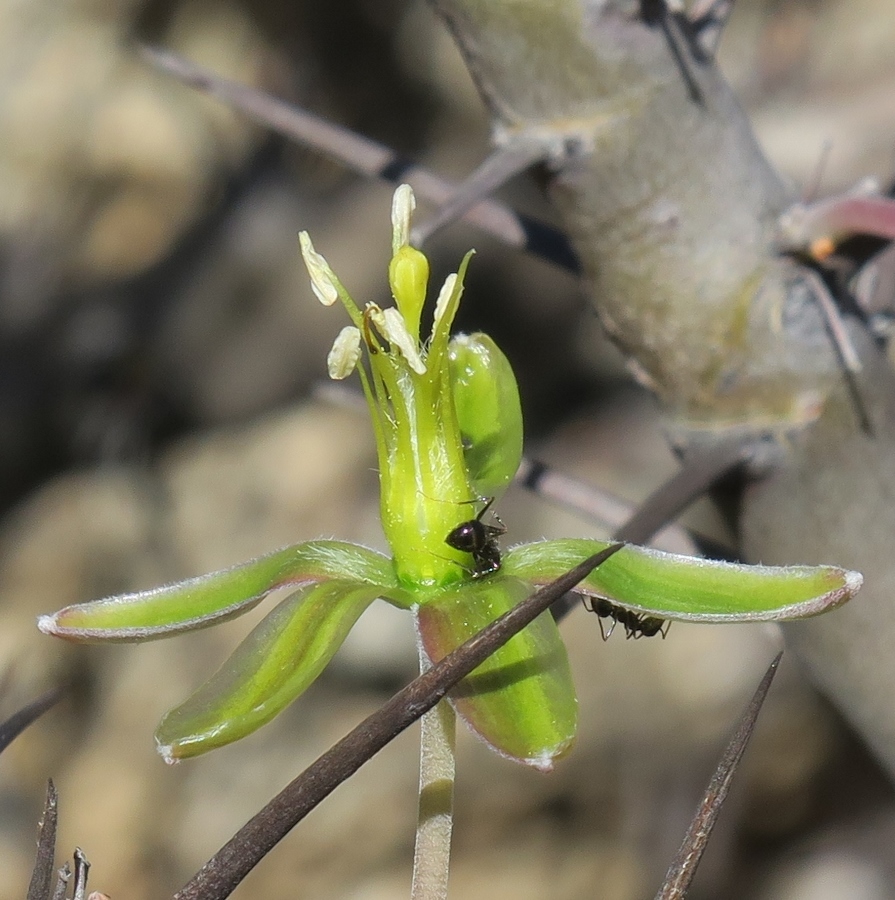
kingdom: Plantae
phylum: Tracheophyta
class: Magnoliopsida
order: Geraniales
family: Geraniaceae
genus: Monsonia
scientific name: Monsonia ciliata
